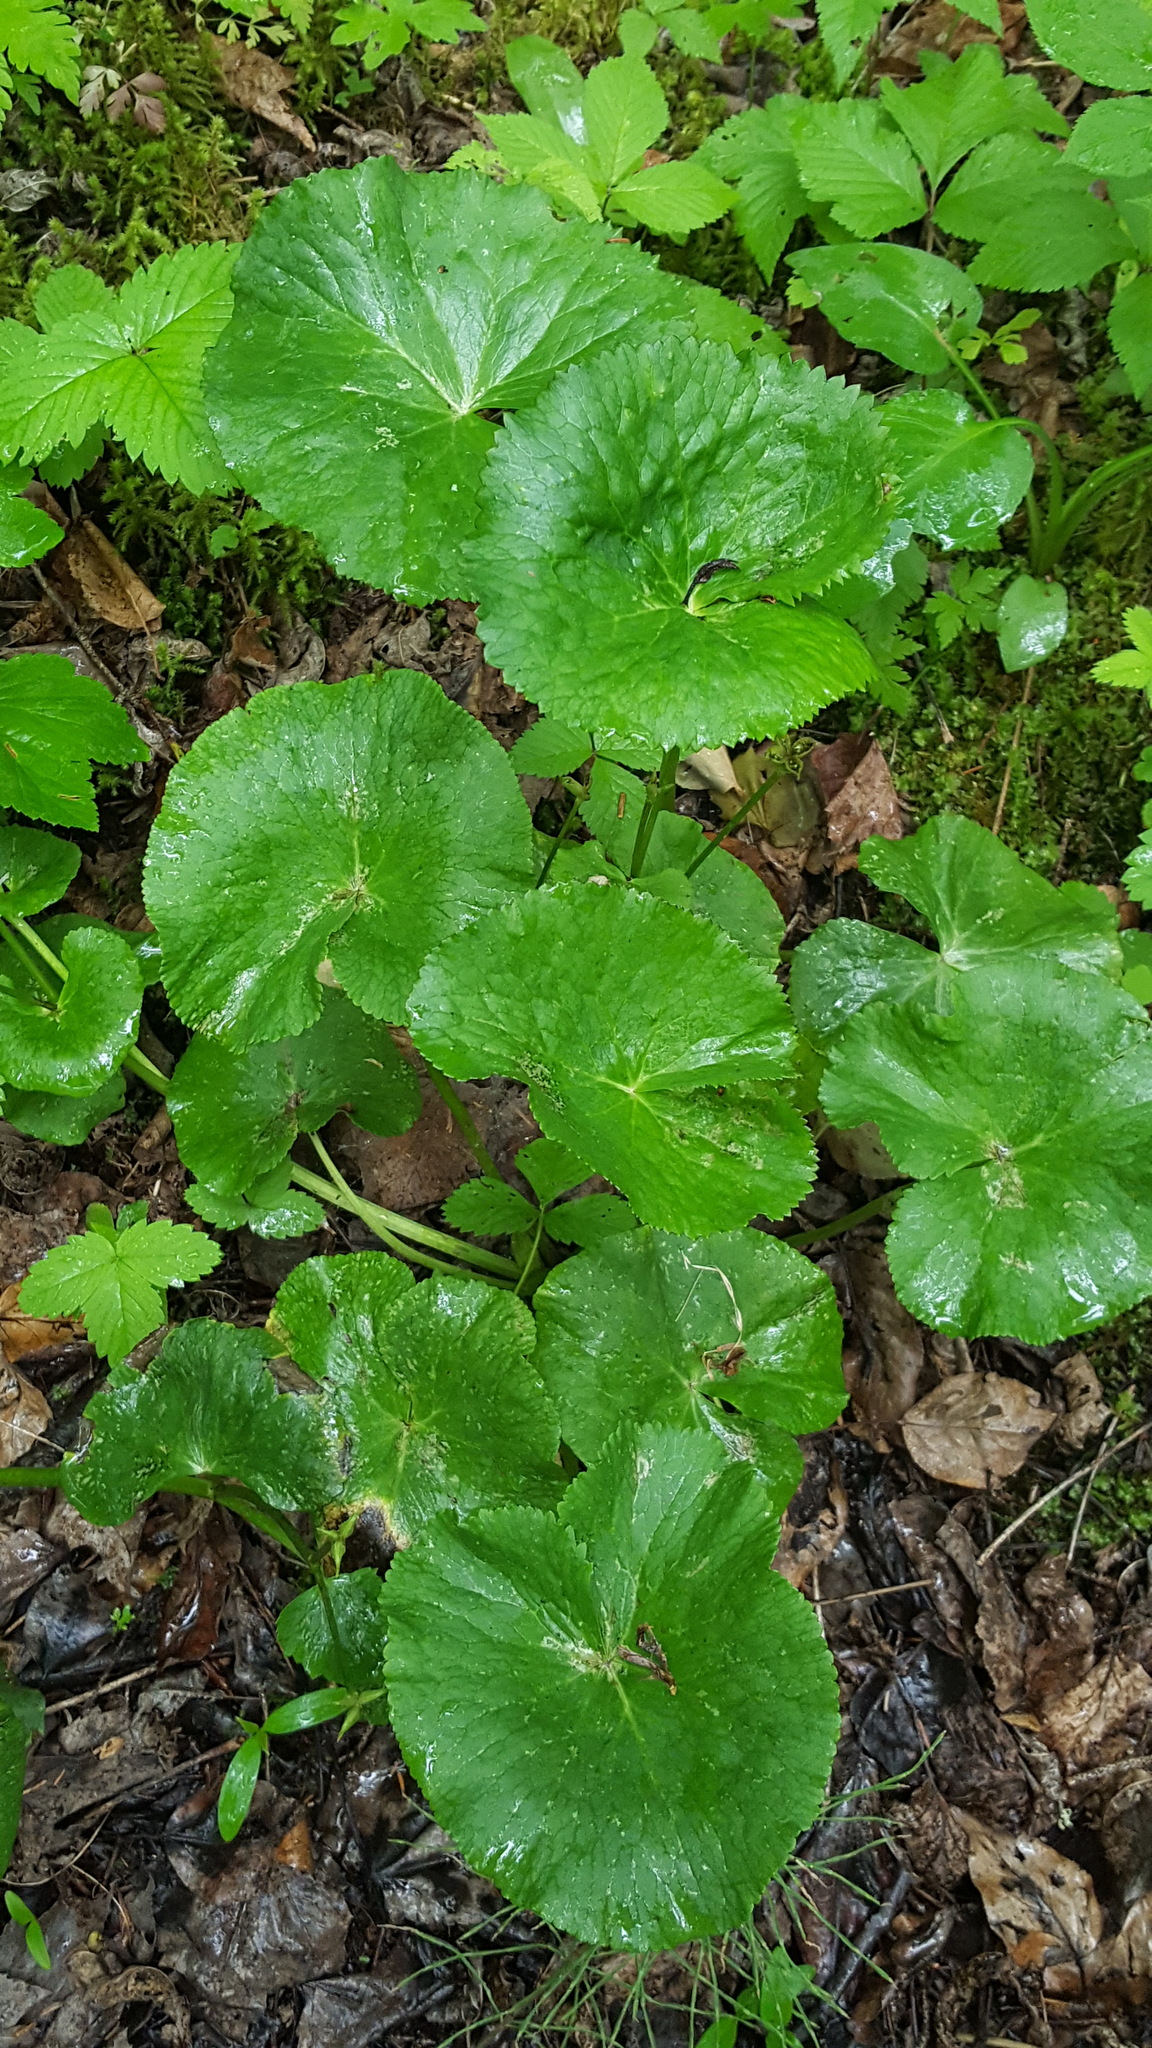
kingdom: Plantae
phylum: Tracheophyta
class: Magnoliopsida
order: Ranunculales
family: Ranunculaceae
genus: Caltha
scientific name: Caltha palustris
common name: Marsh marigold
